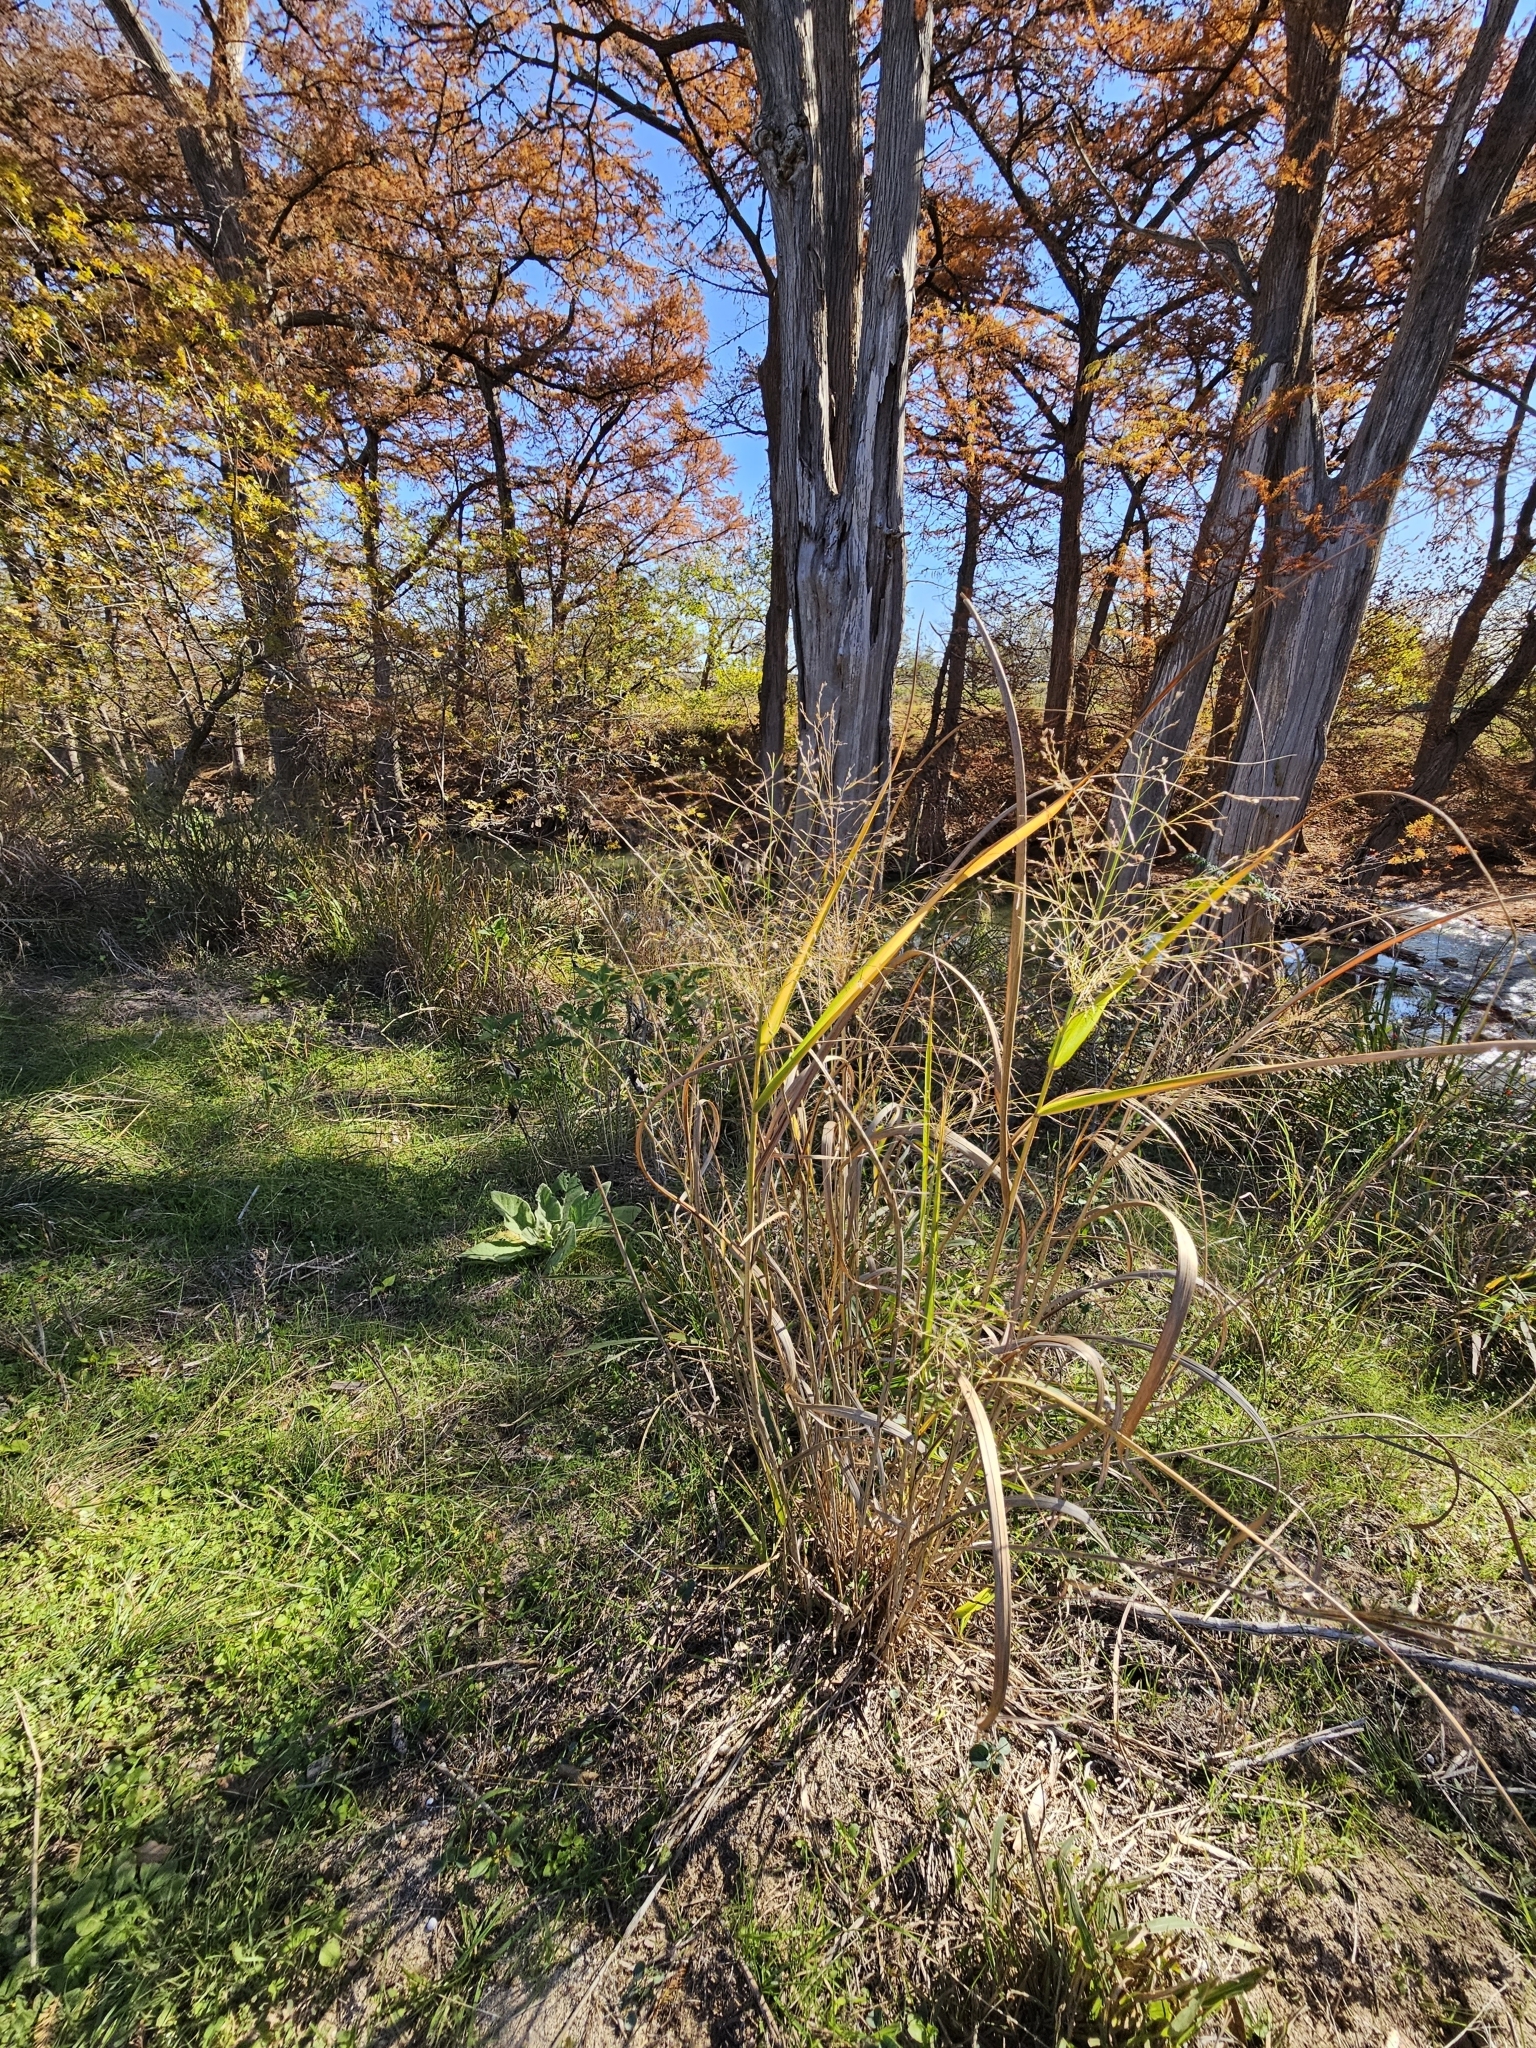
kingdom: Plantae
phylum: Tracheophyta
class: Liliopsida
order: Poales
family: Poaceae
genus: Panicum
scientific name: Panicum virgatum
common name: Switchgrass
